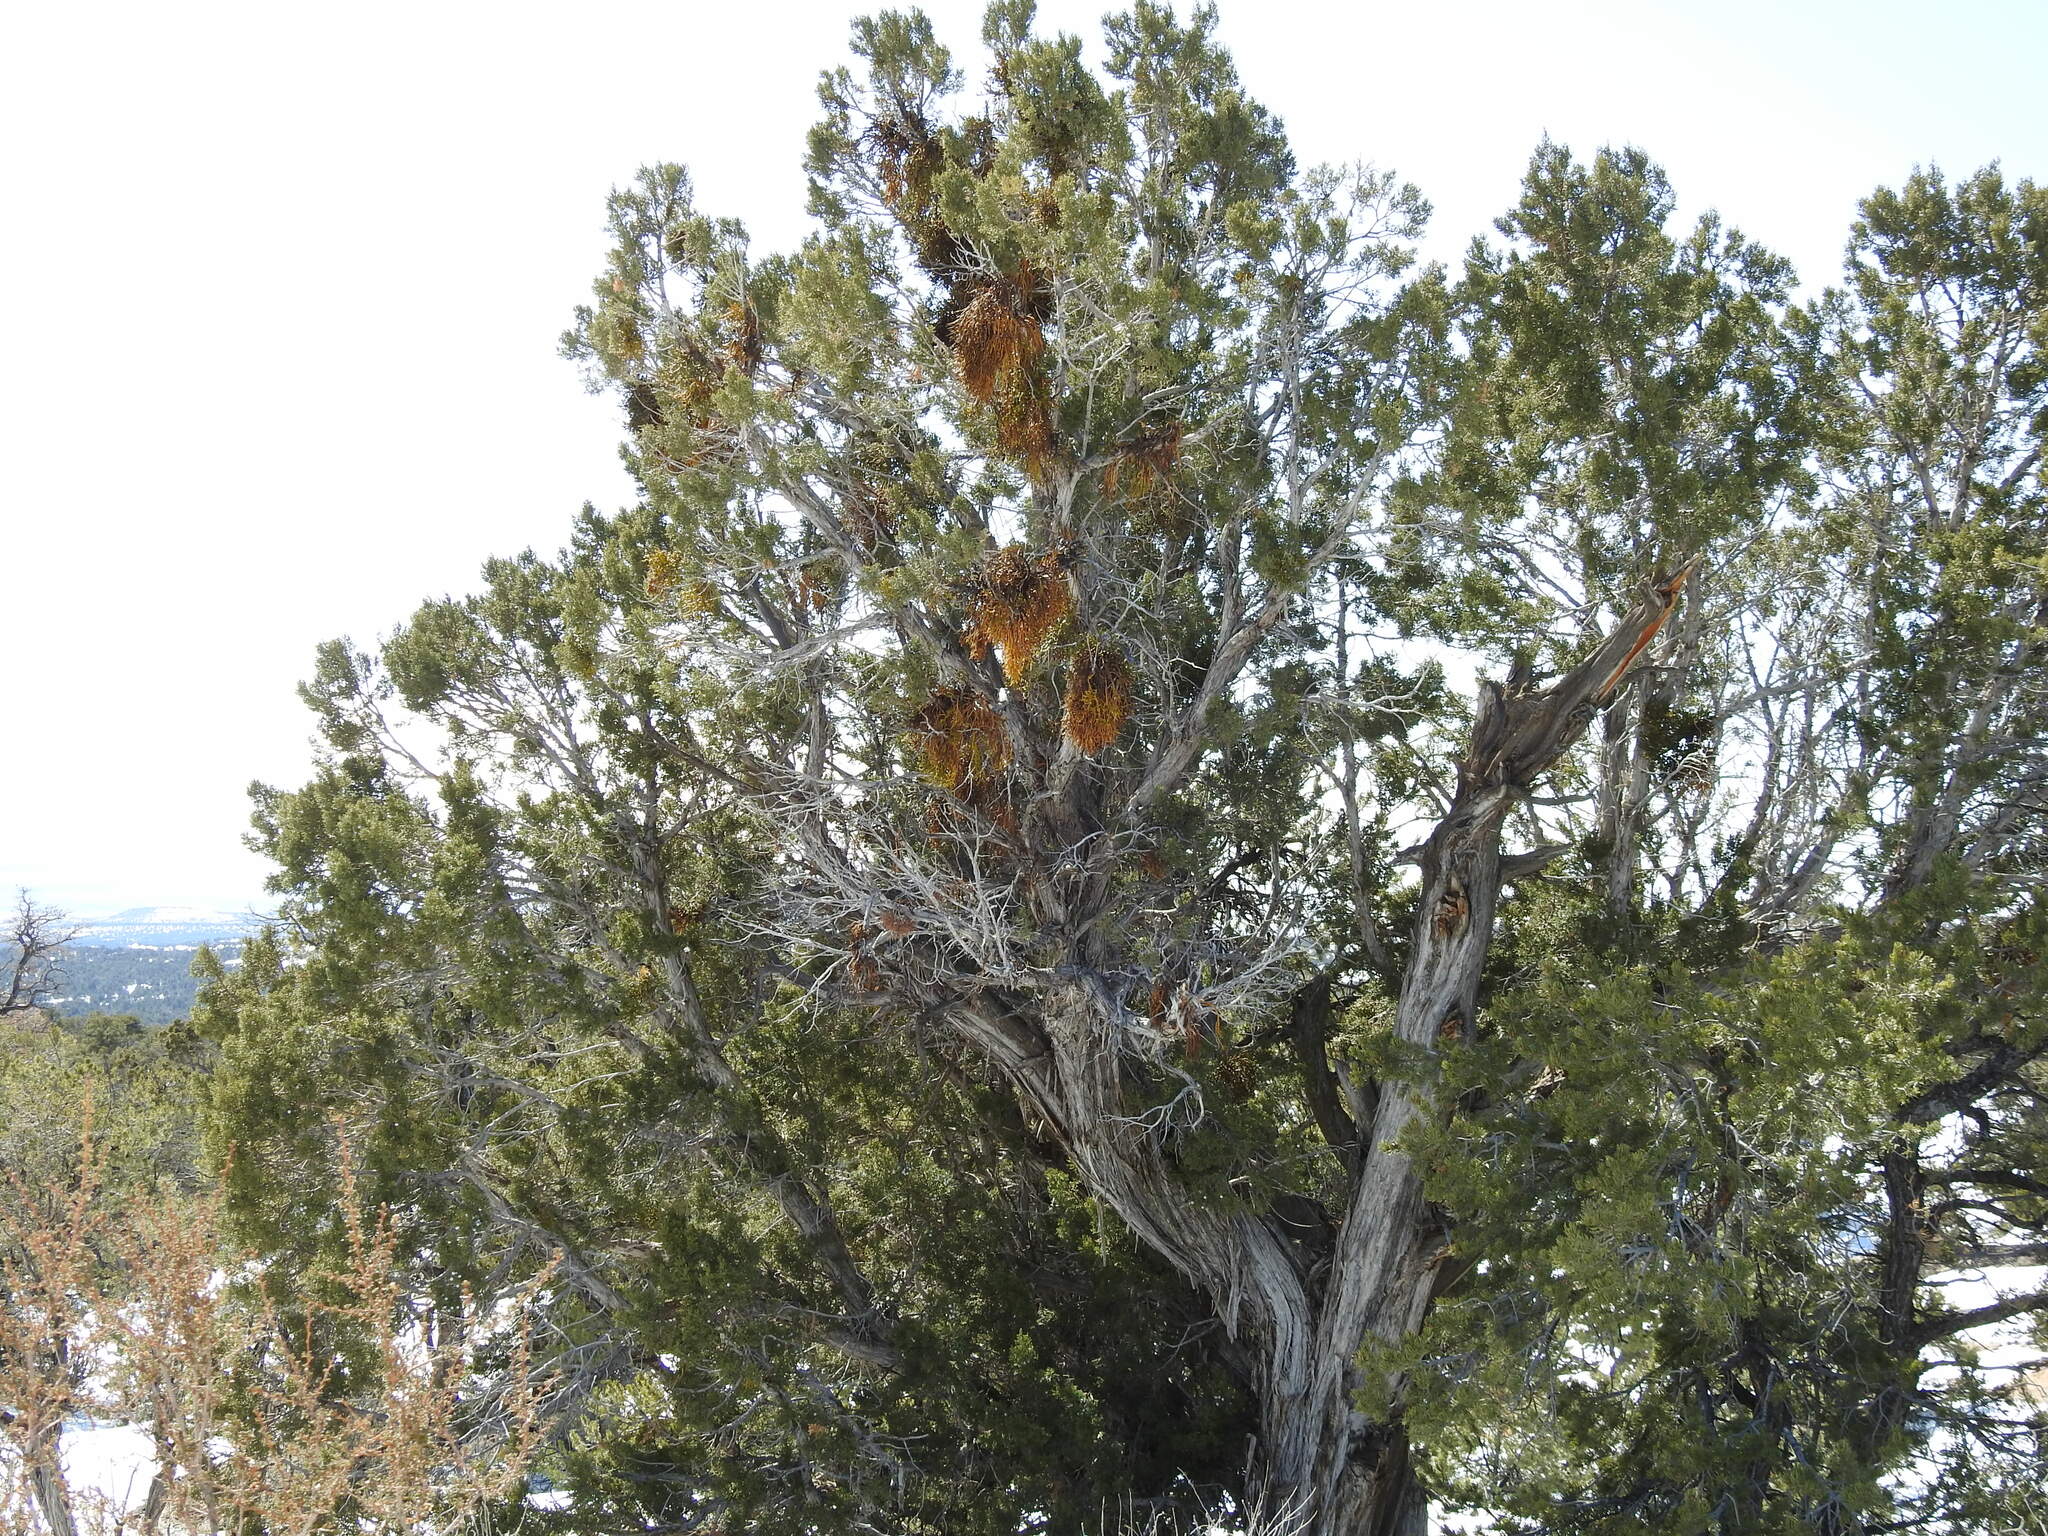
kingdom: Plantae
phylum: Tracheophyta
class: Magnoliopsida
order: Santalales
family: Viscaceae
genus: Phoradendron
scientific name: Phoradendron juniperinum
